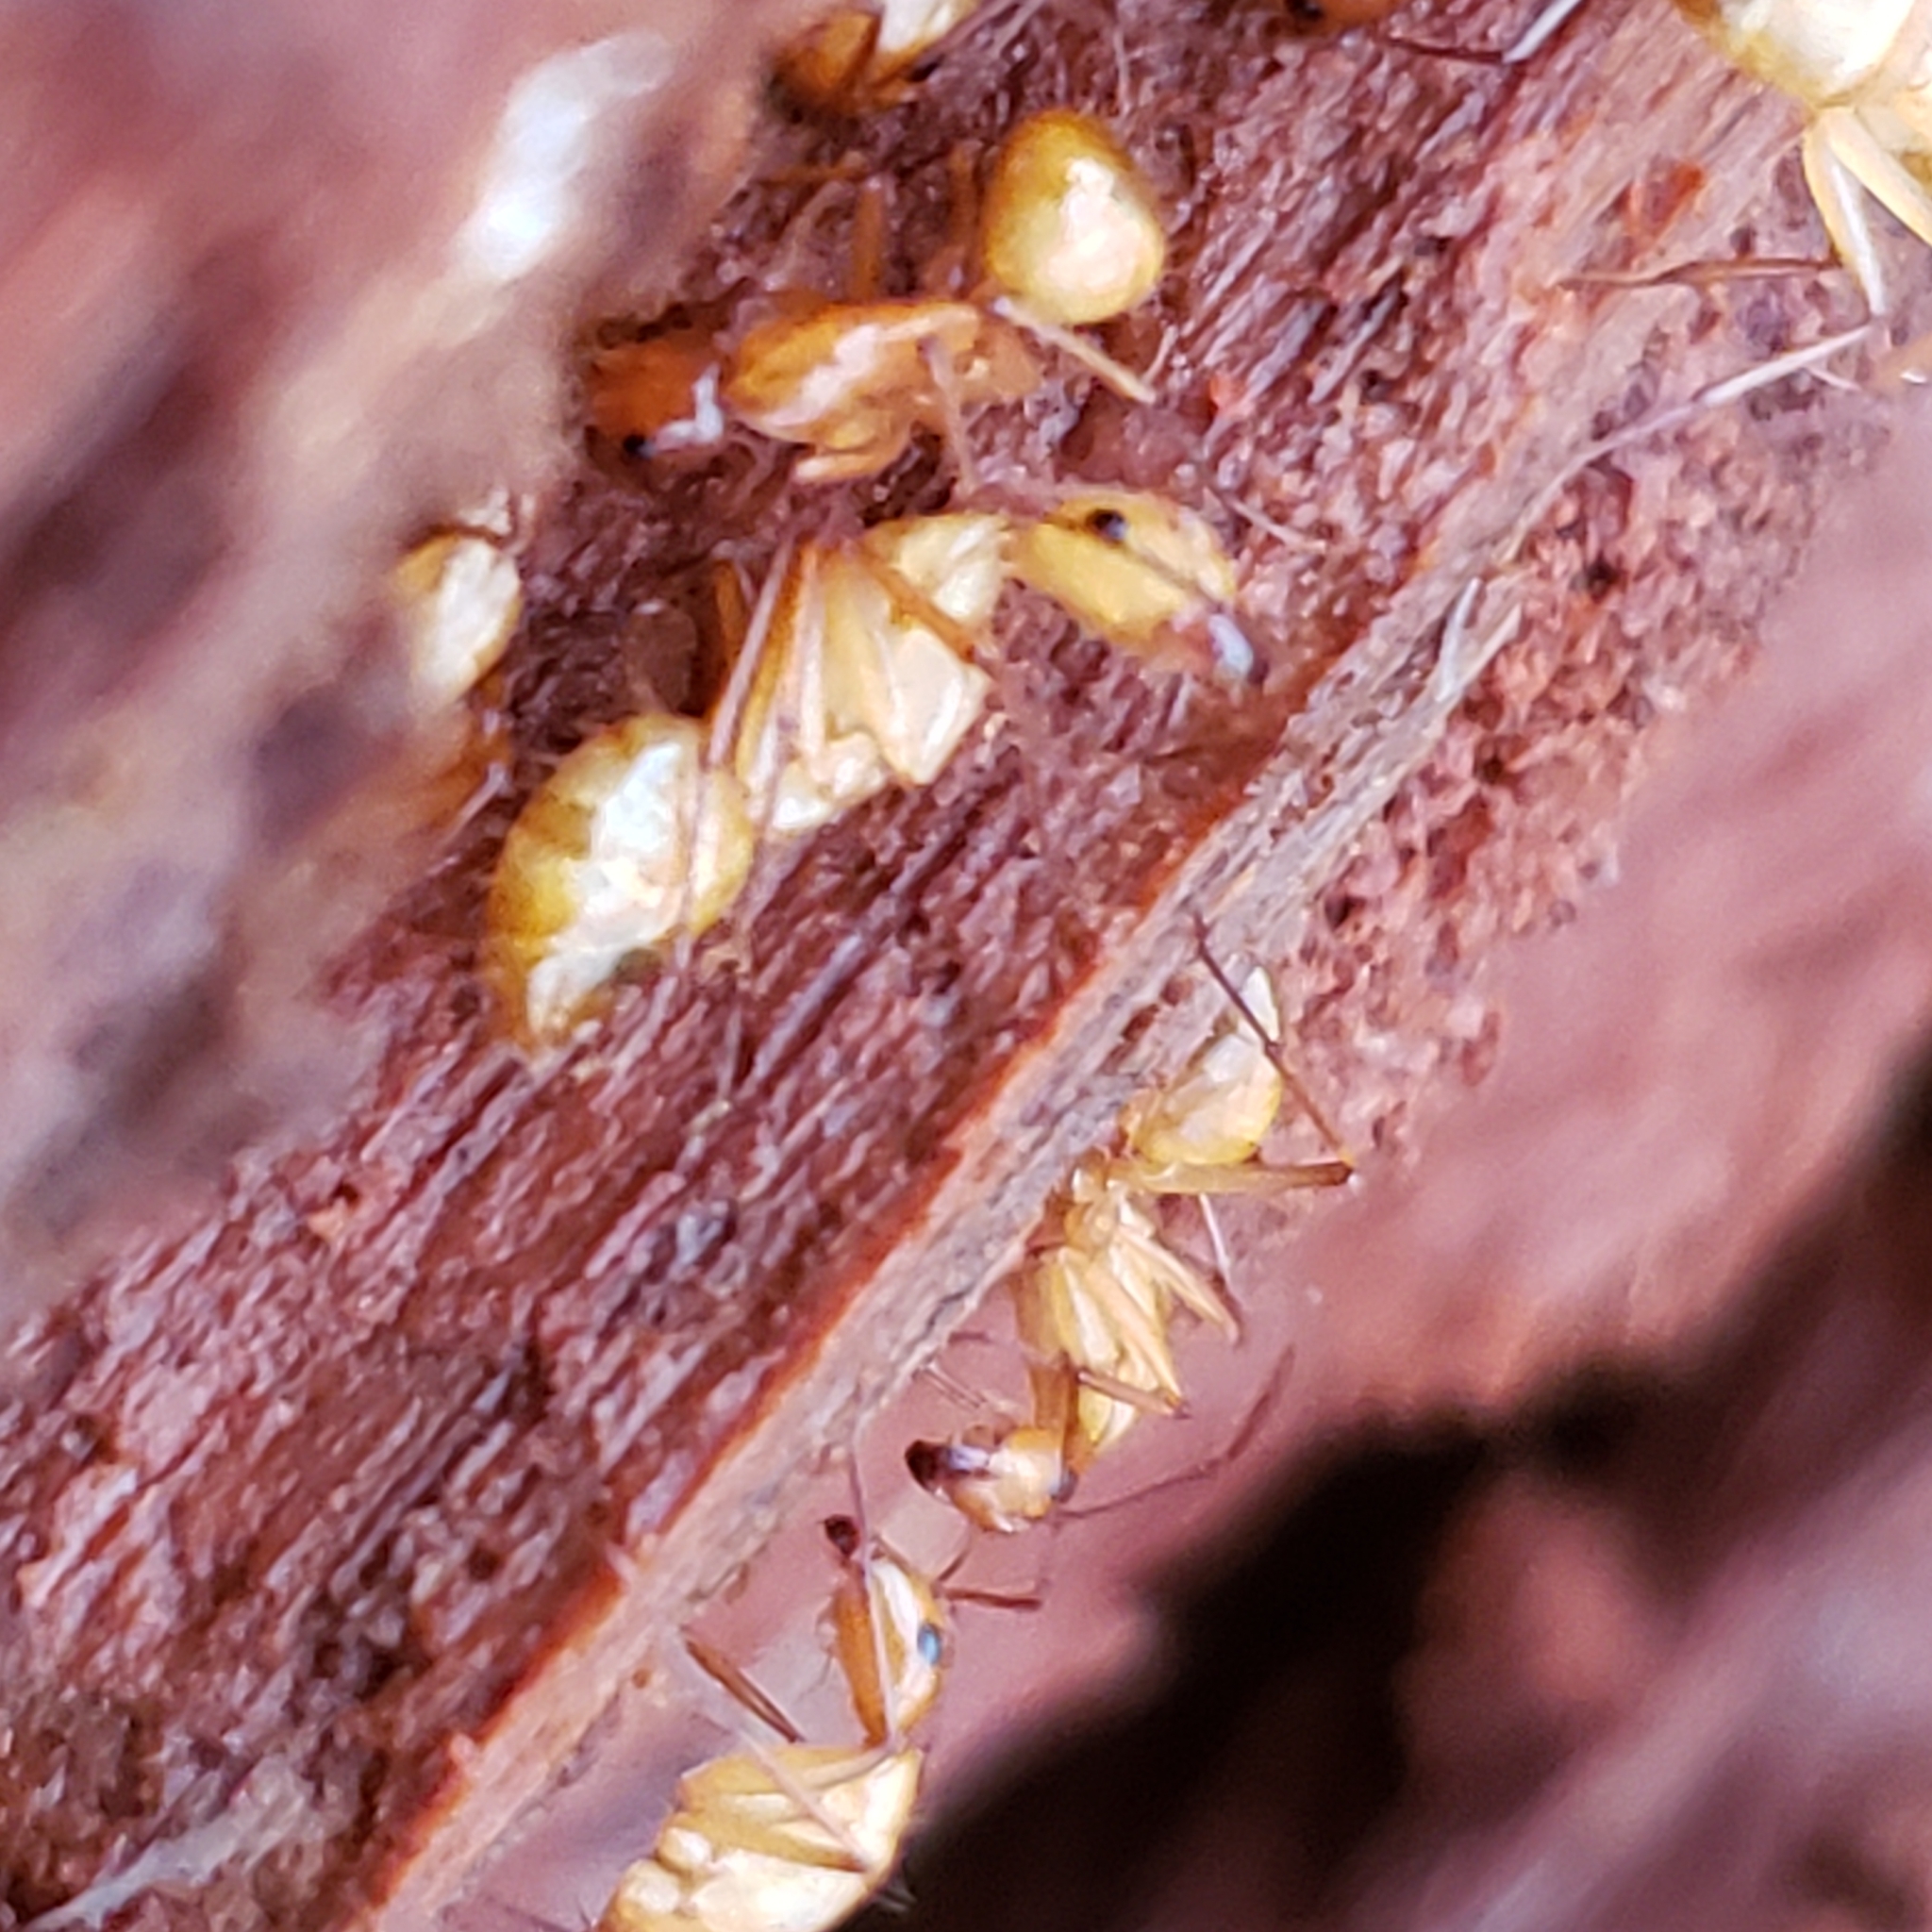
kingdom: Animalia
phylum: Arthropoda
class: Insecta
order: Hymenoptera
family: Formicidae
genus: Camponotus
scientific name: Camponotus castaneus
